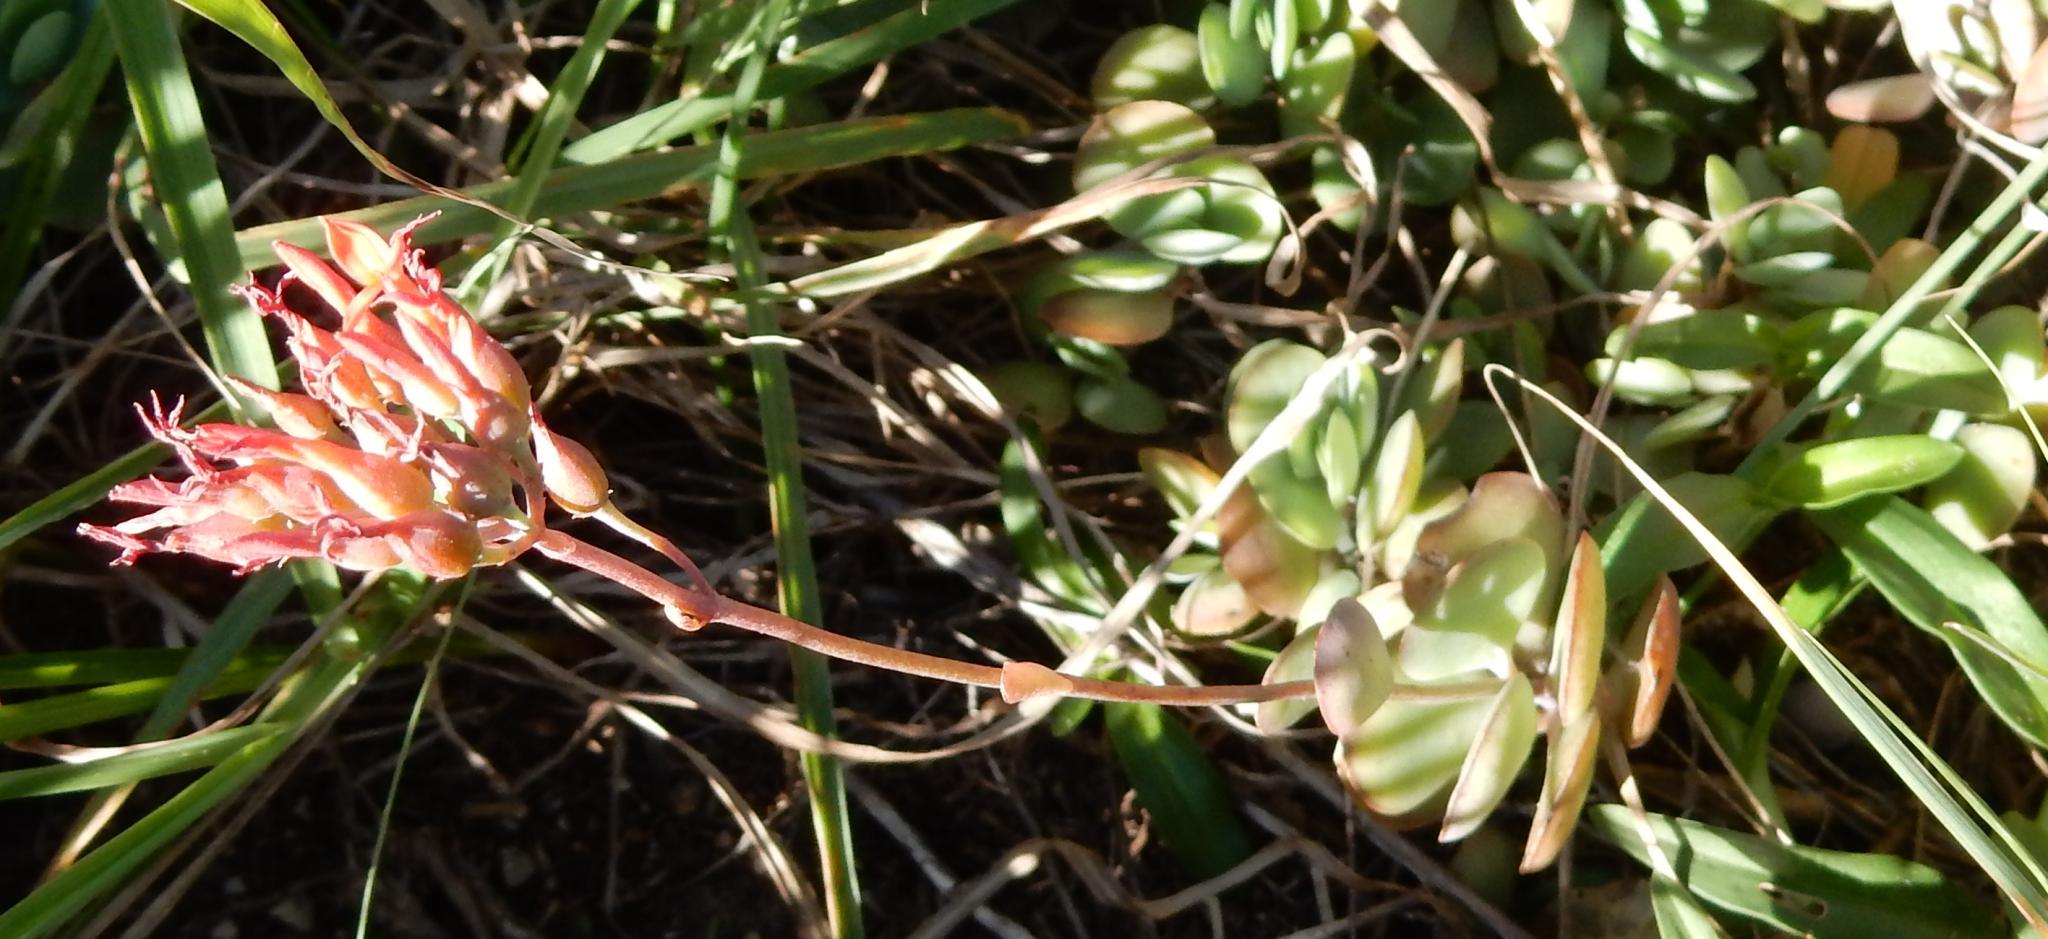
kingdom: Plantae
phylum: Tracheophyta
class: Magnoliopsida
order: Saxifragales
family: Crassulaceae
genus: Kalanchoe
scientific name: Kalanchoe rotundifolia
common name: Common kalanchoe
